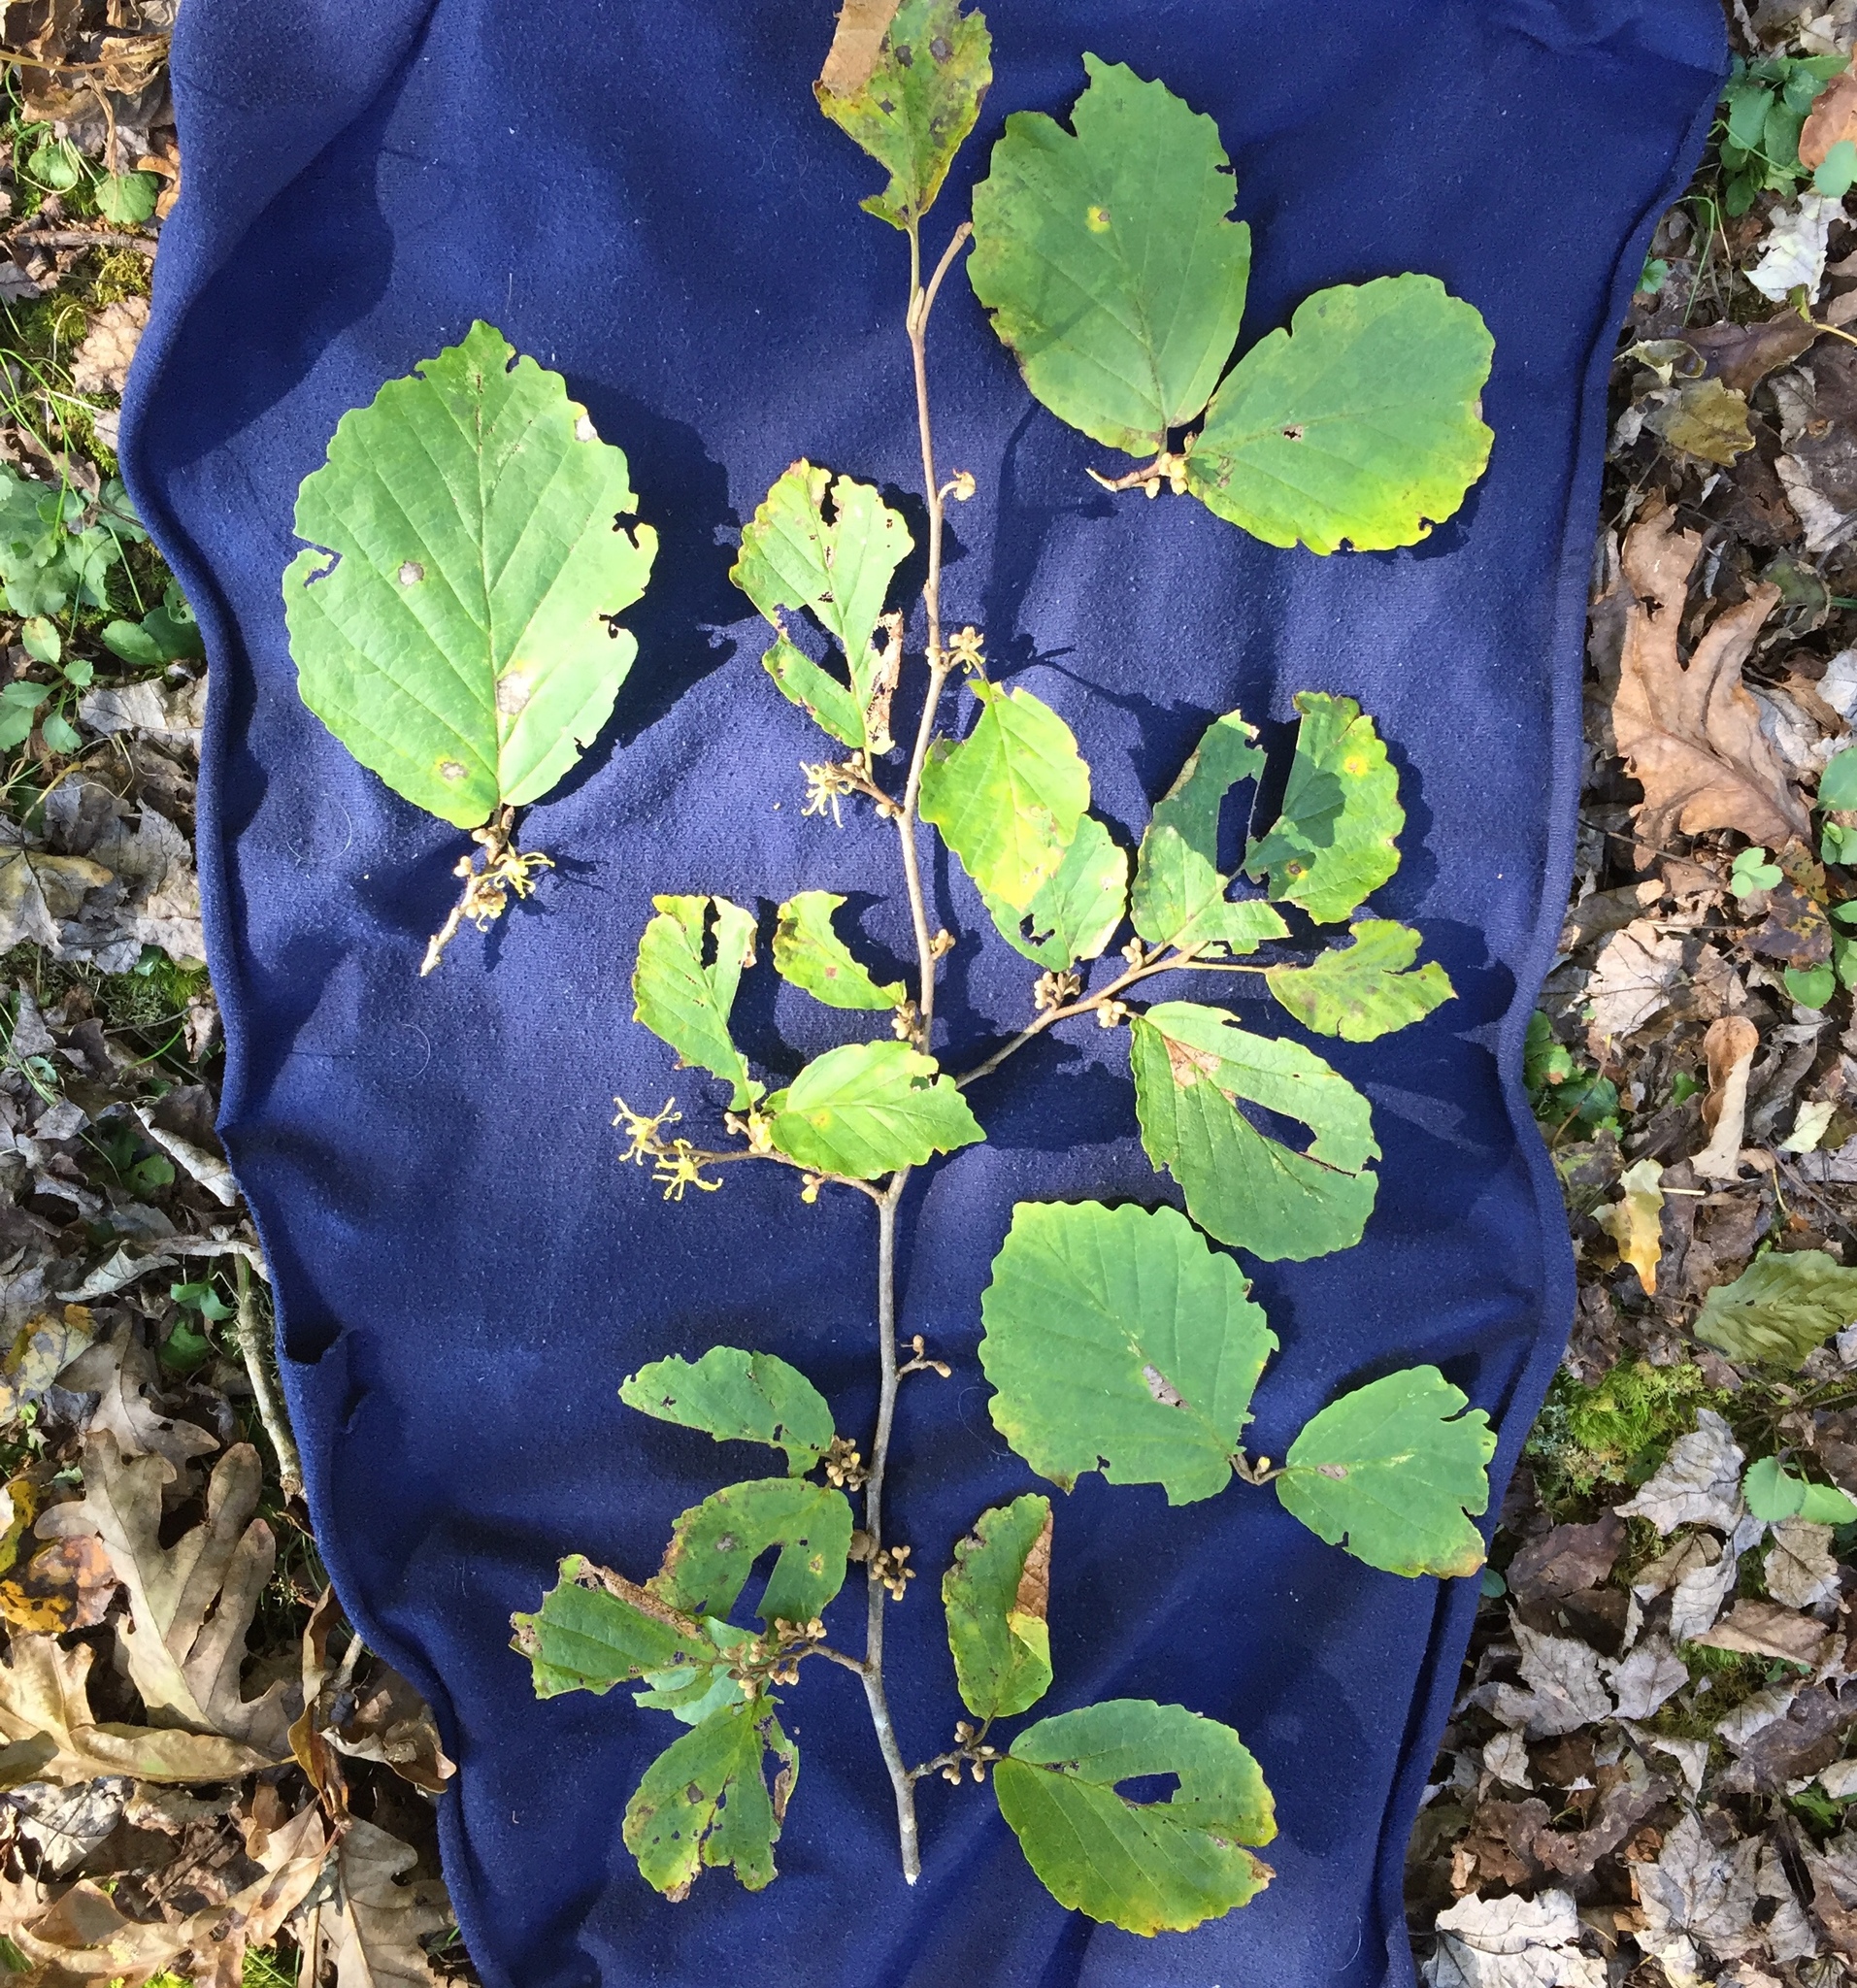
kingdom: Plantae
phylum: Tracheophyta
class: Magnoliopsida
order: Saxifragales
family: Hamamelidaceae
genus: Hamamelis
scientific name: Hamamelis virginiana
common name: Witch-hazel
